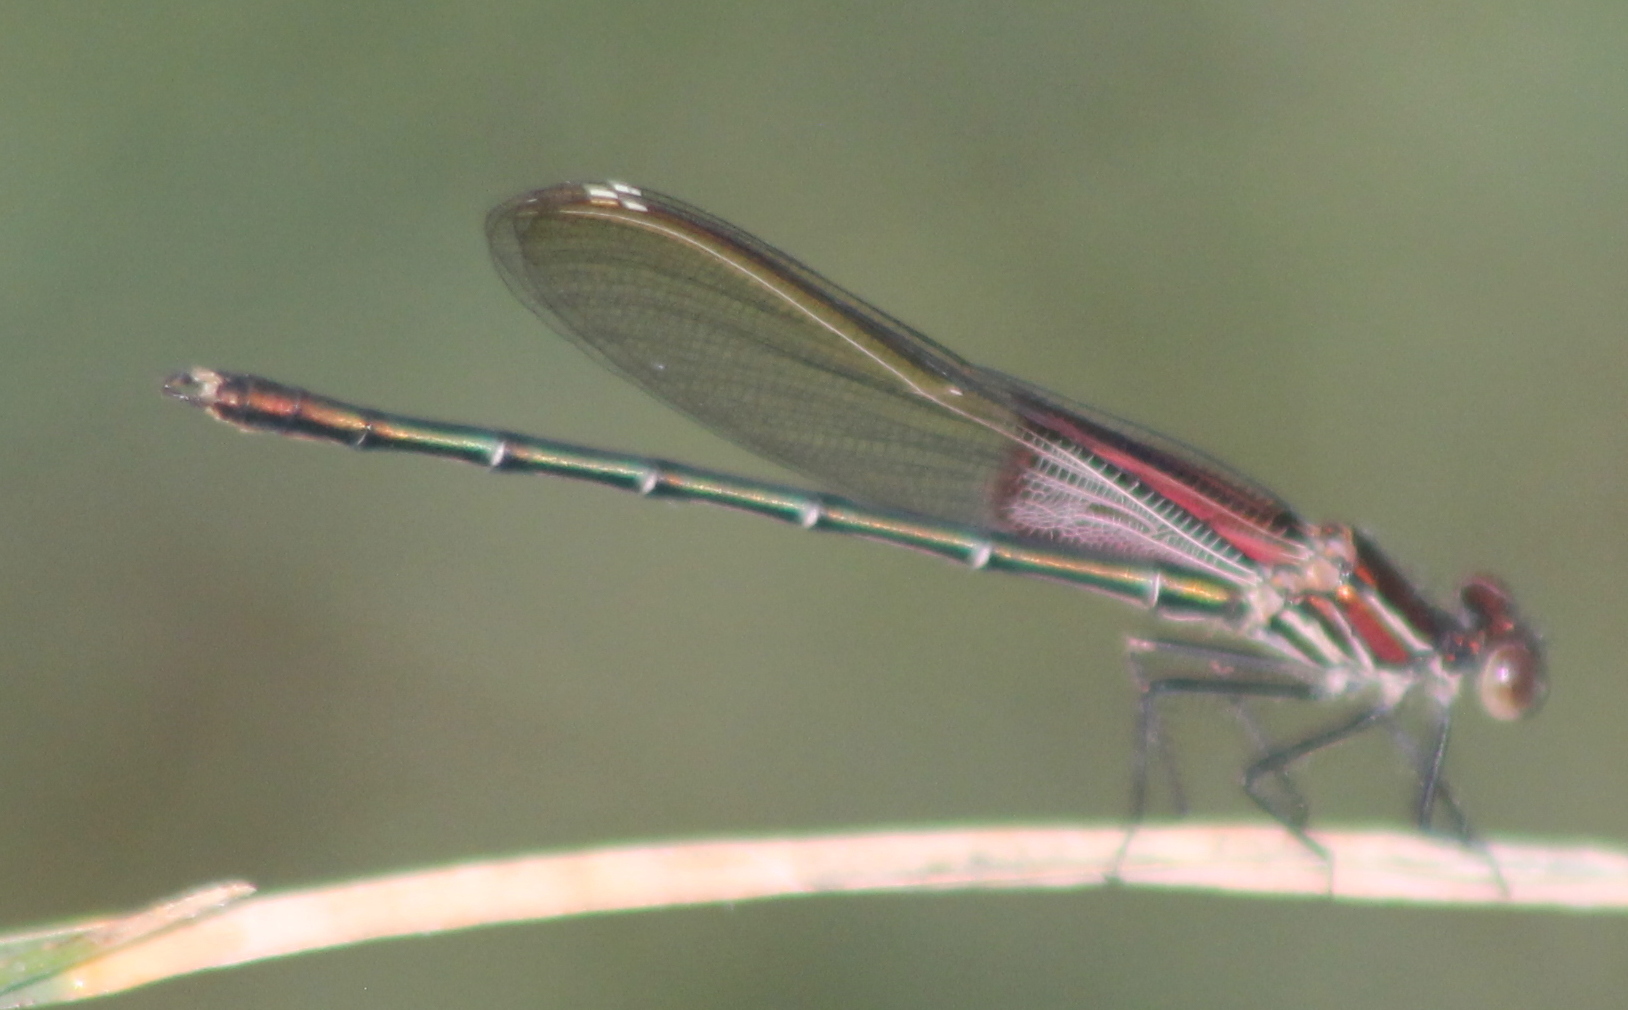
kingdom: Animalia
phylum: Arthropoda
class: Insecta
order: Odonata
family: Calopterygidae
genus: Hetaerina
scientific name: Hetaerina americana
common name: American rubyspot
